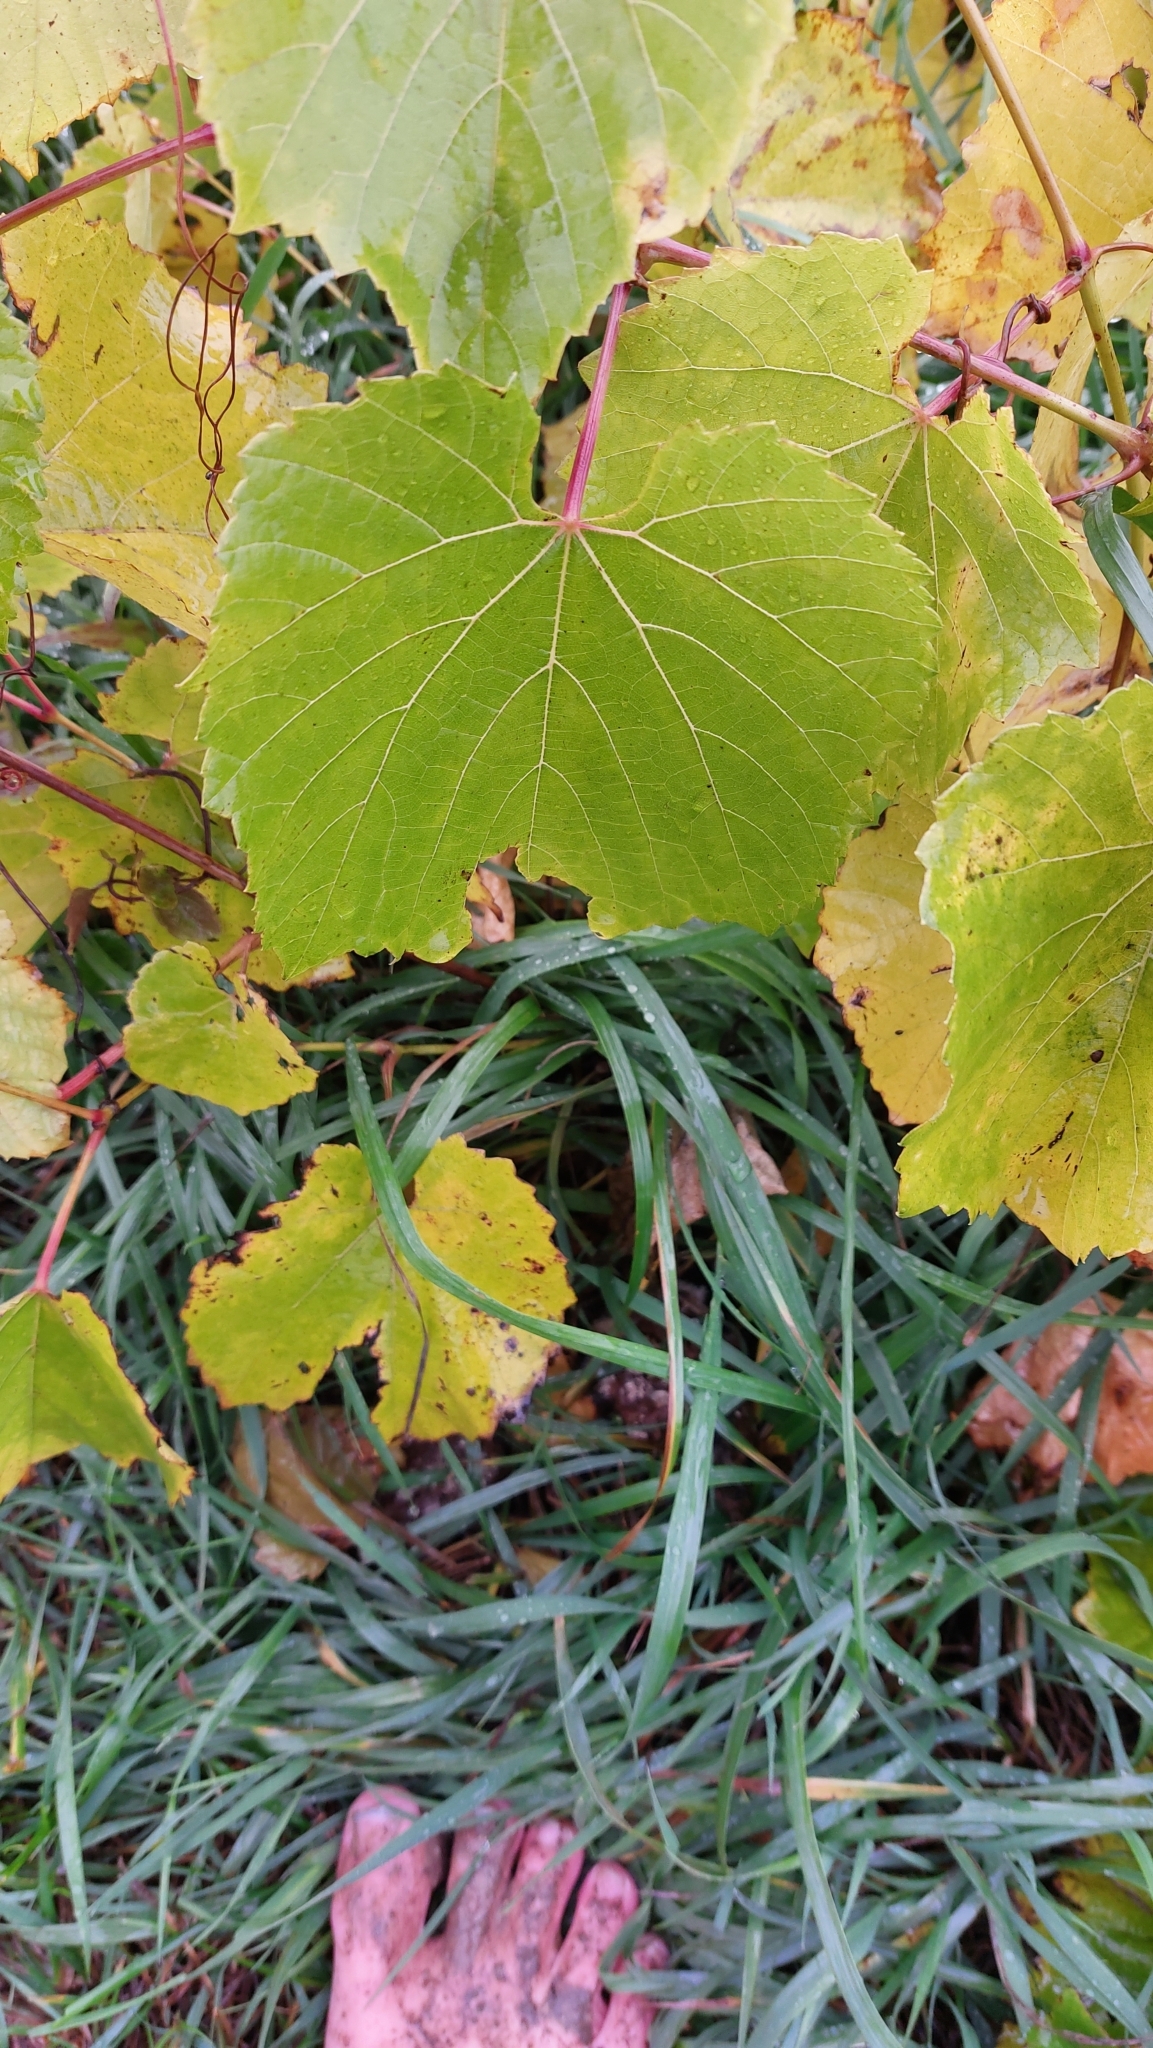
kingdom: Plantae
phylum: Tracheophyta
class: Magnoliopsida
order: Vitales
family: Vitaceae
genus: Vitis
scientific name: Vitis vinifera
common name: Grape-vine
